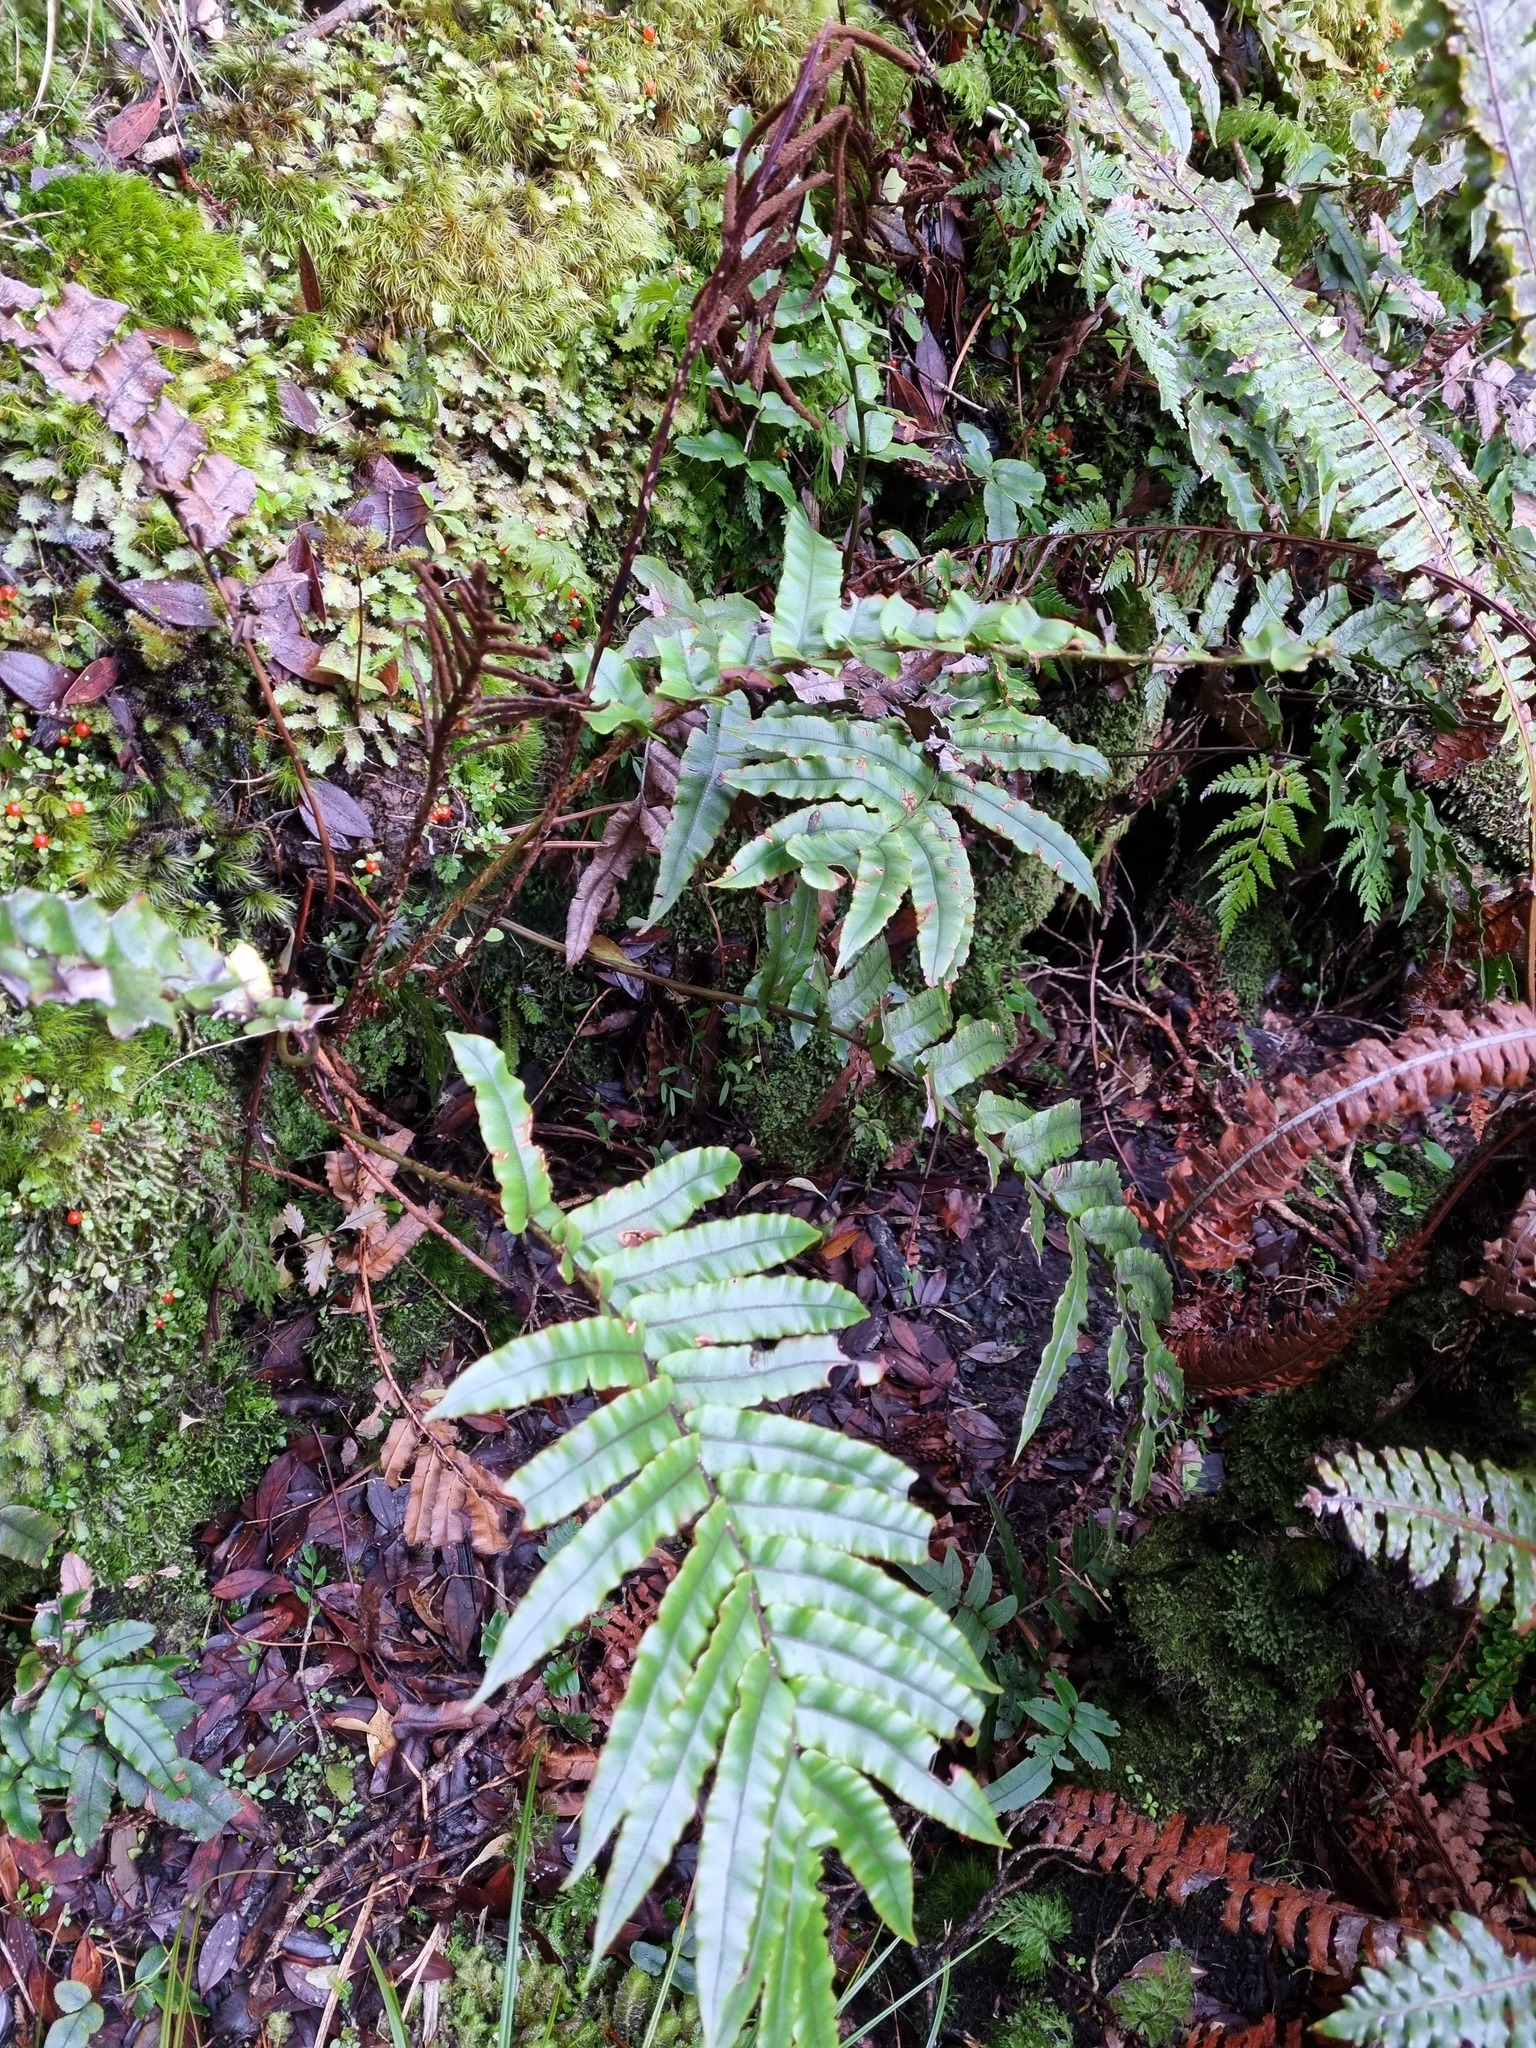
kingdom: Plantae
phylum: Tracheophyta
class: Polypodiopsida
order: Polypodiales
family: Blechnaceae
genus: Parablechnum
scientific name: Parablechnum procerum
